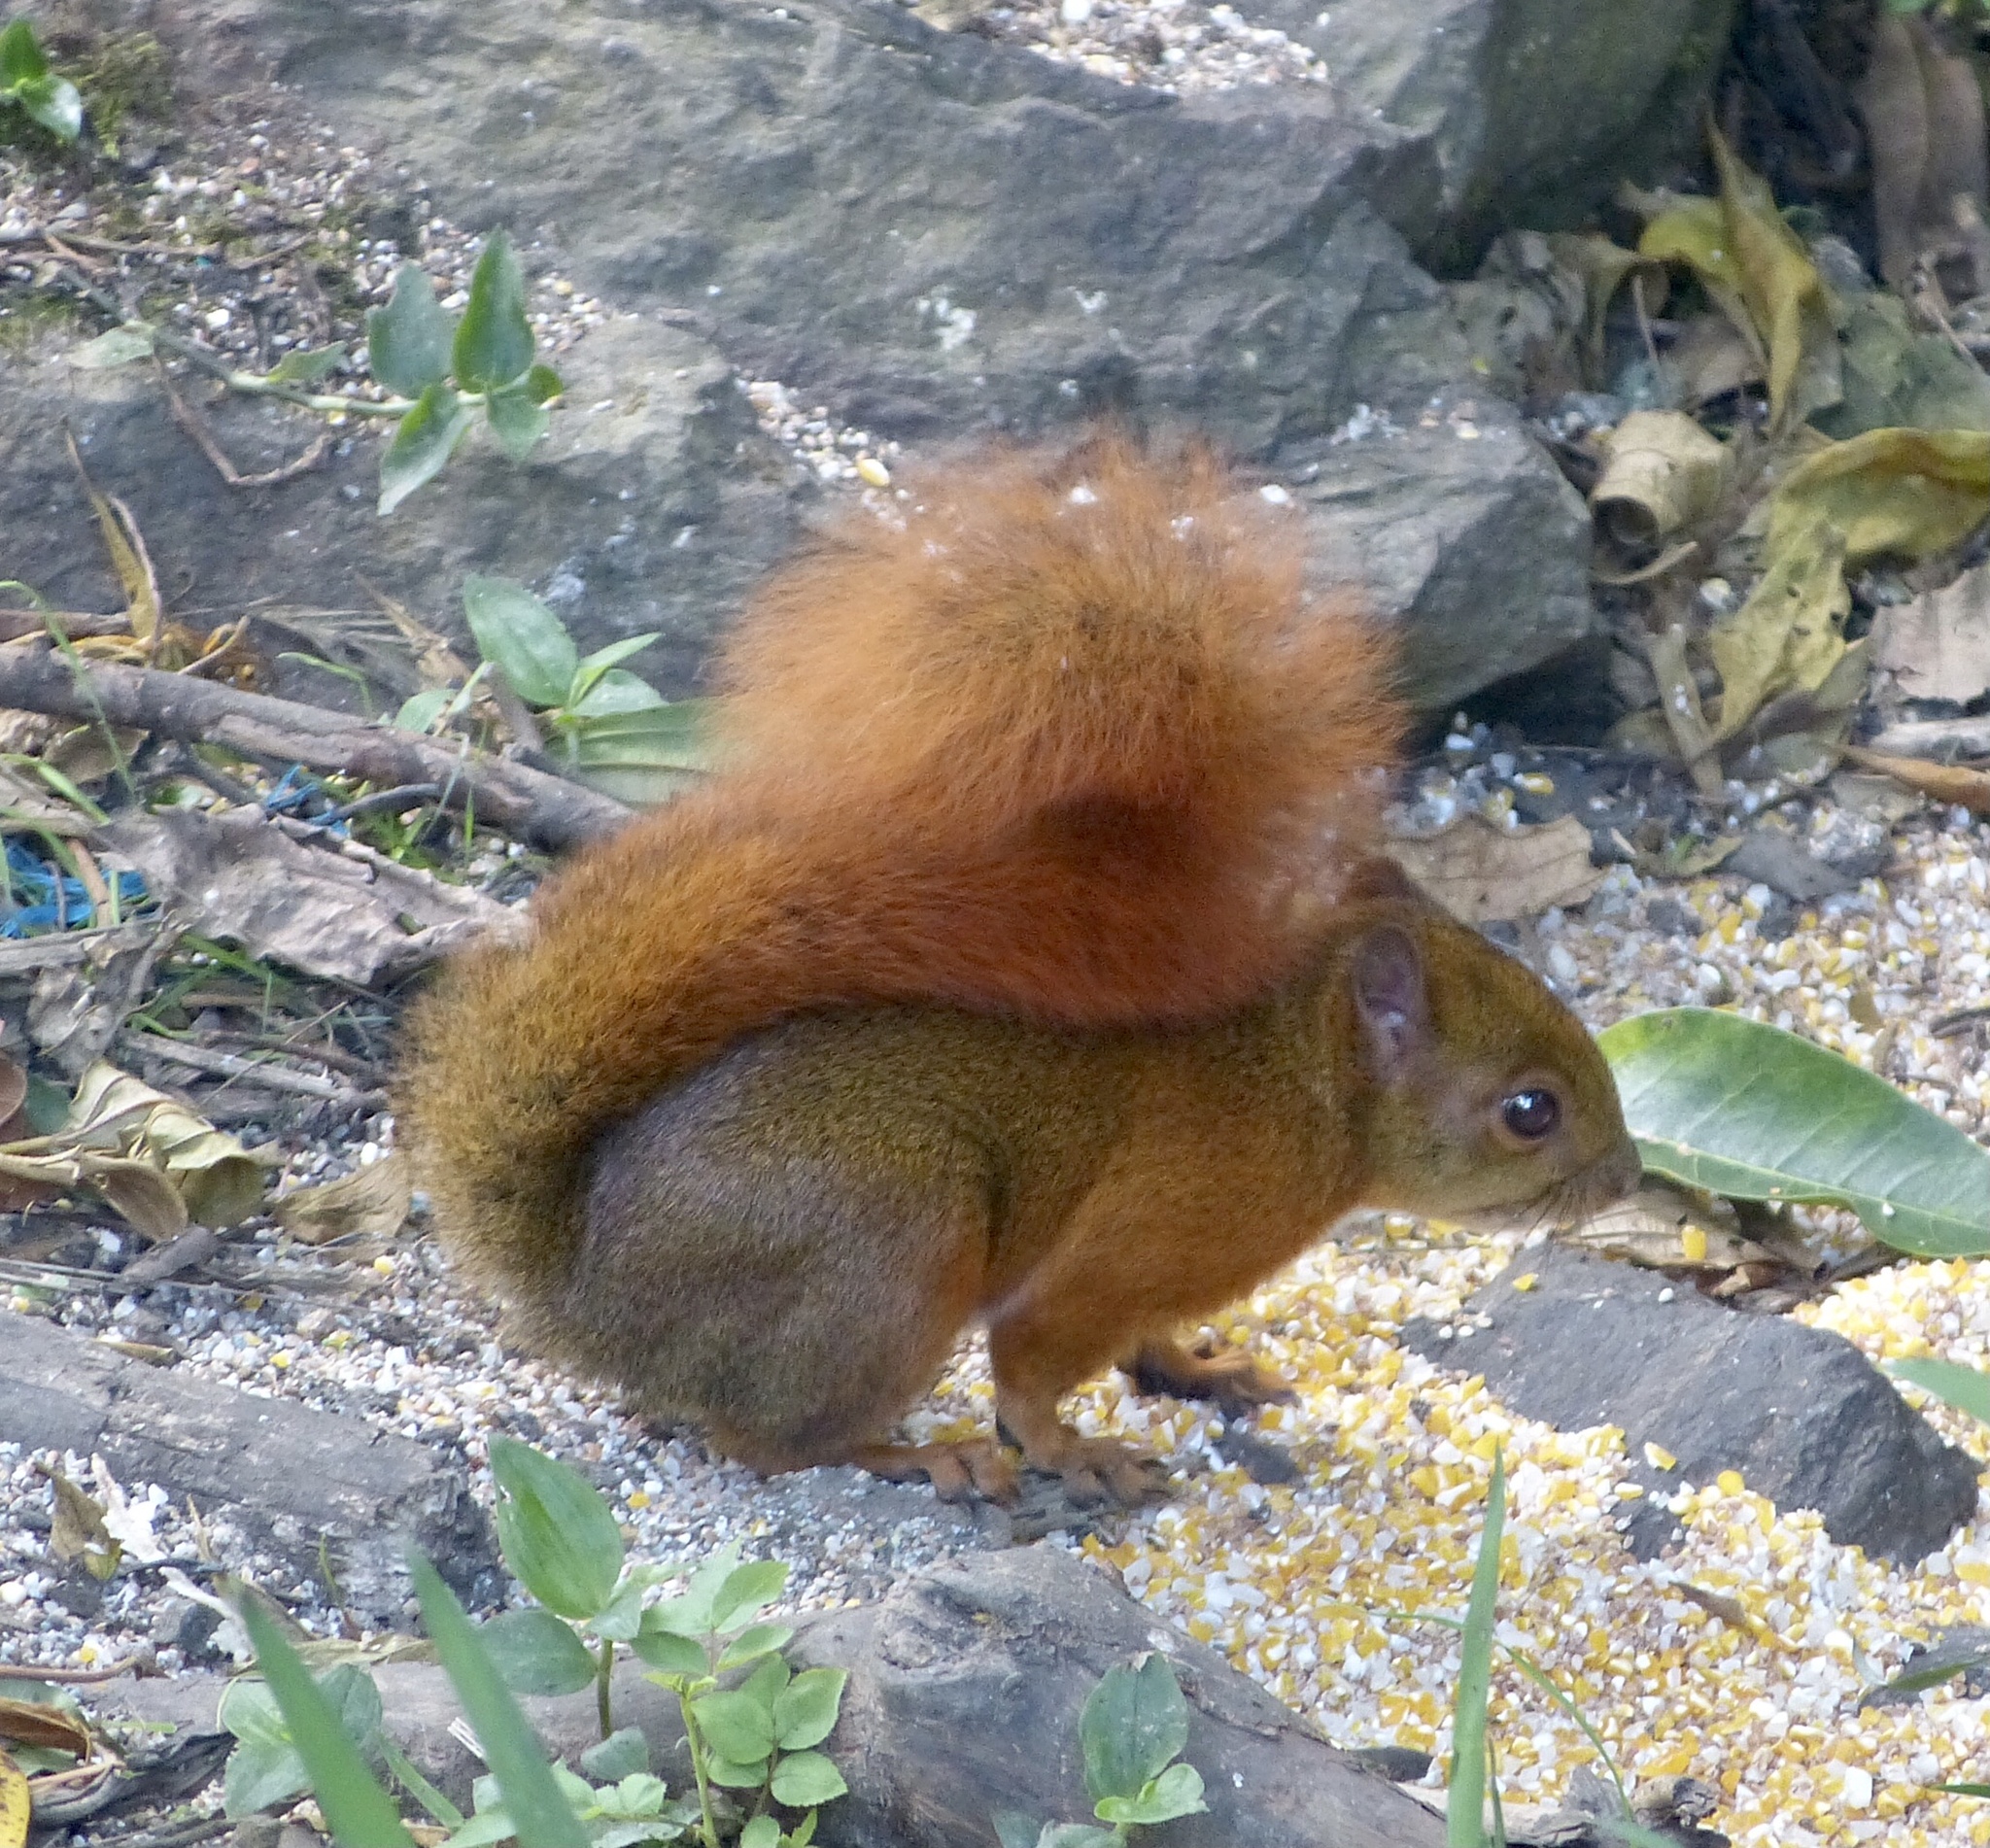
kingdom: Animalia
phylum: Chordata
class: Mammalia
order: Rodentia
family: Sciuridae
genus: Sciurus
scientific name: Sciurus granatensis
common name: Red-tailed squirrel
